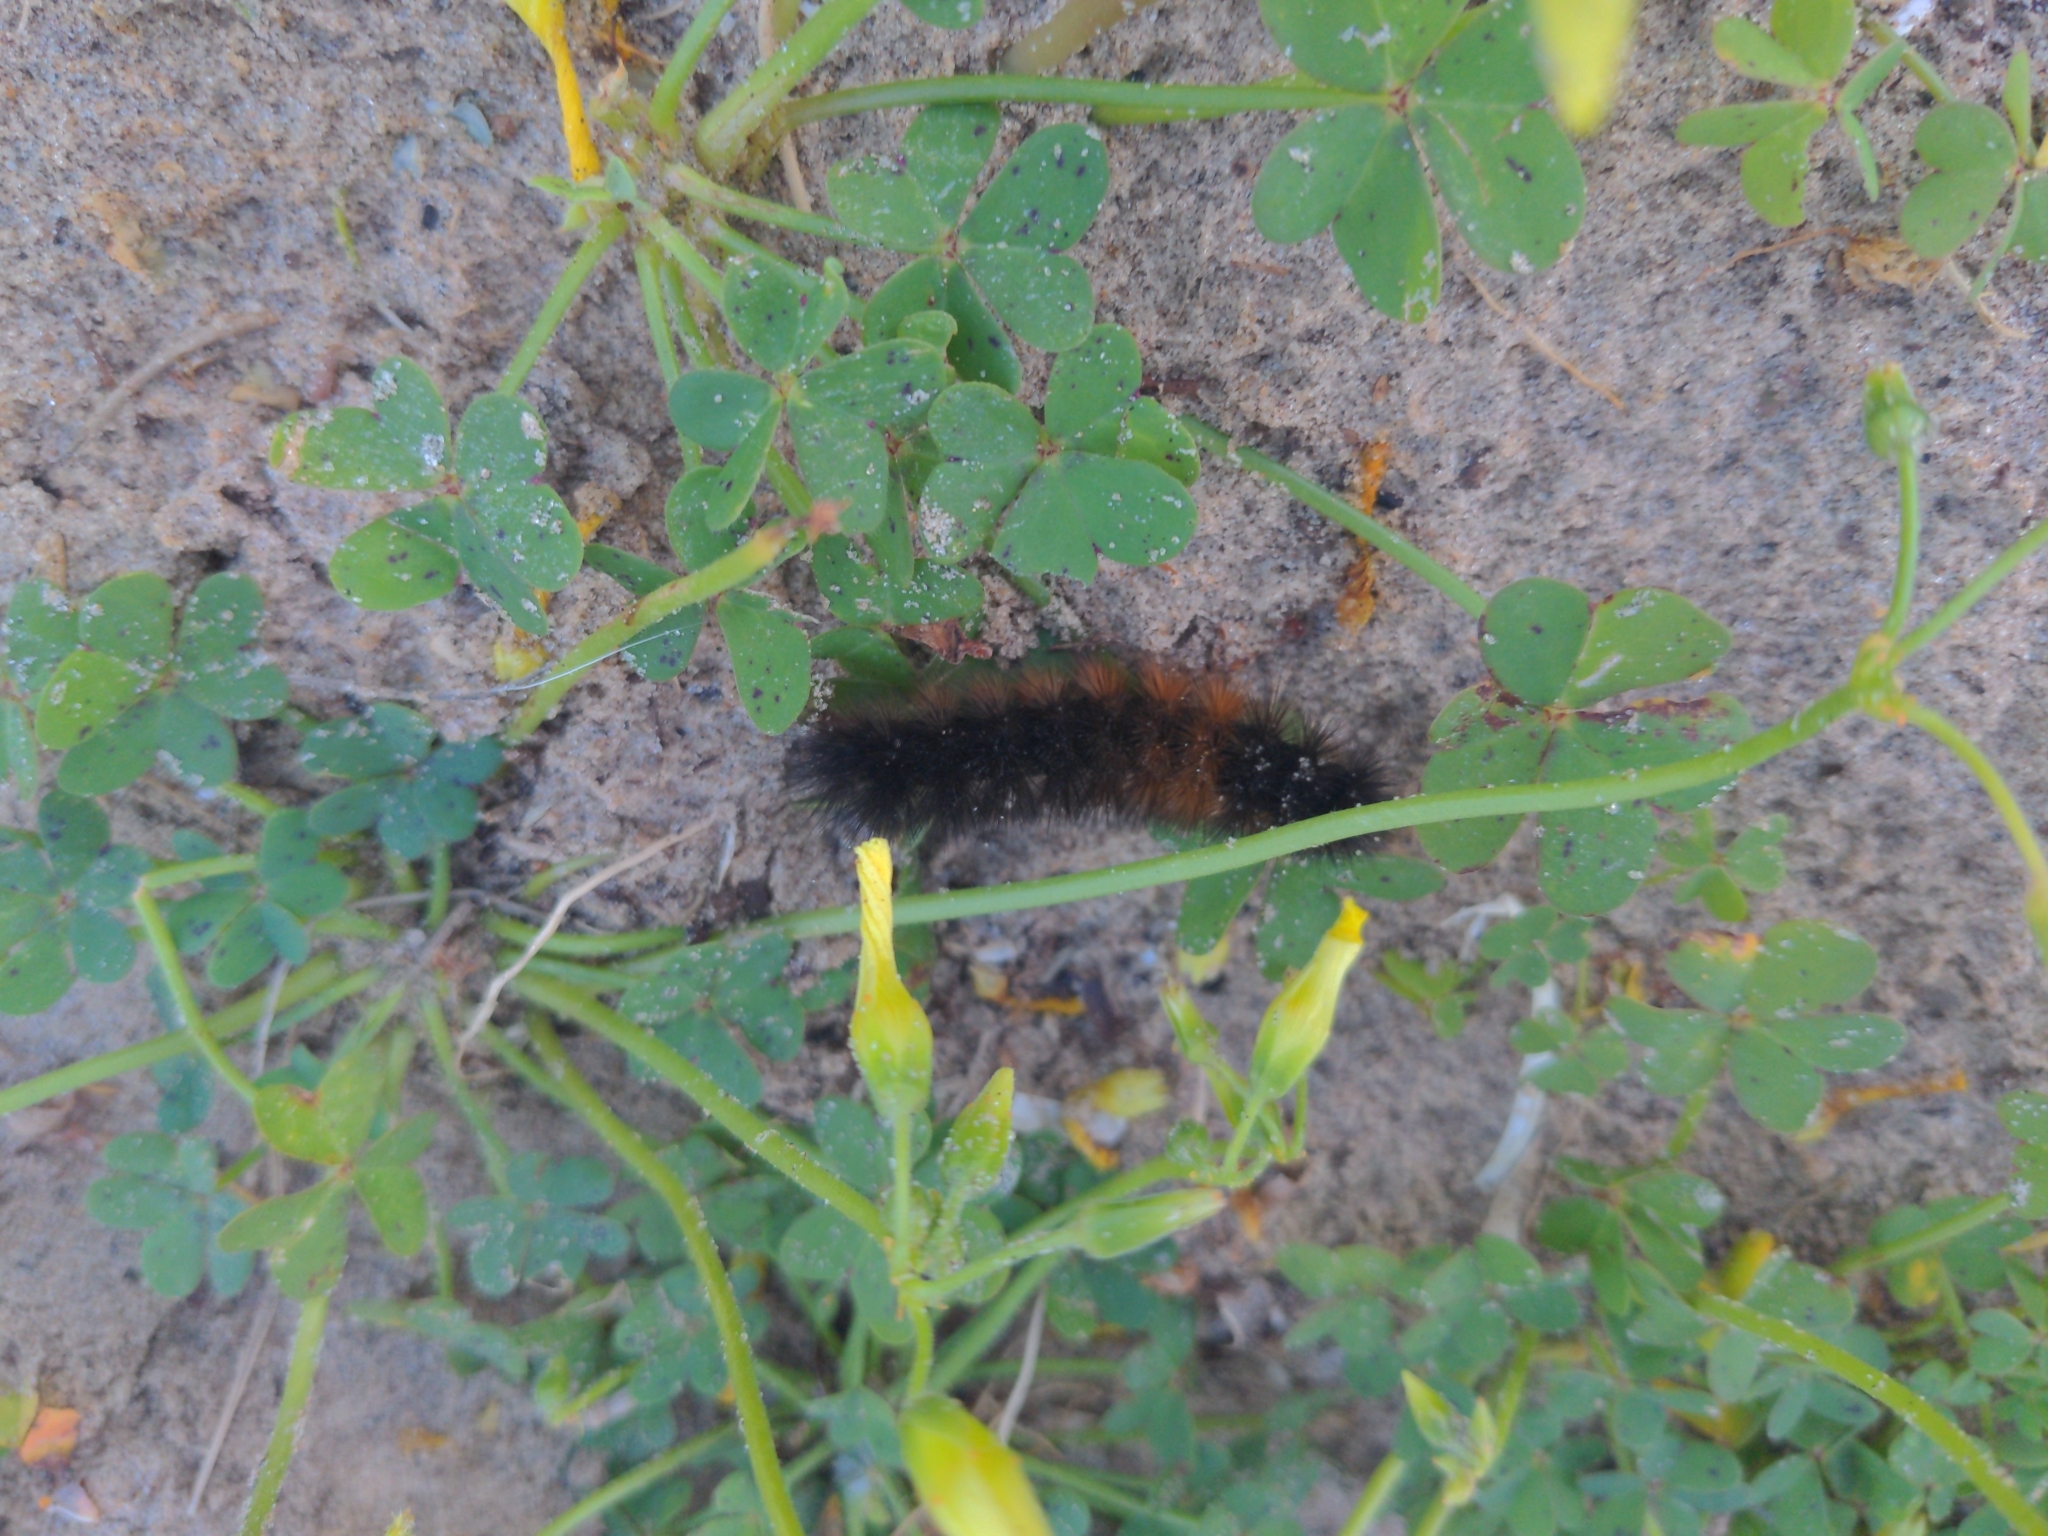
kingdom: Animalia
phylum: Arthropoda
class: Insecta
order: Lepidoptera
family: Erebidae
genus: Ardices
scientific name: Ardices glatignyi
